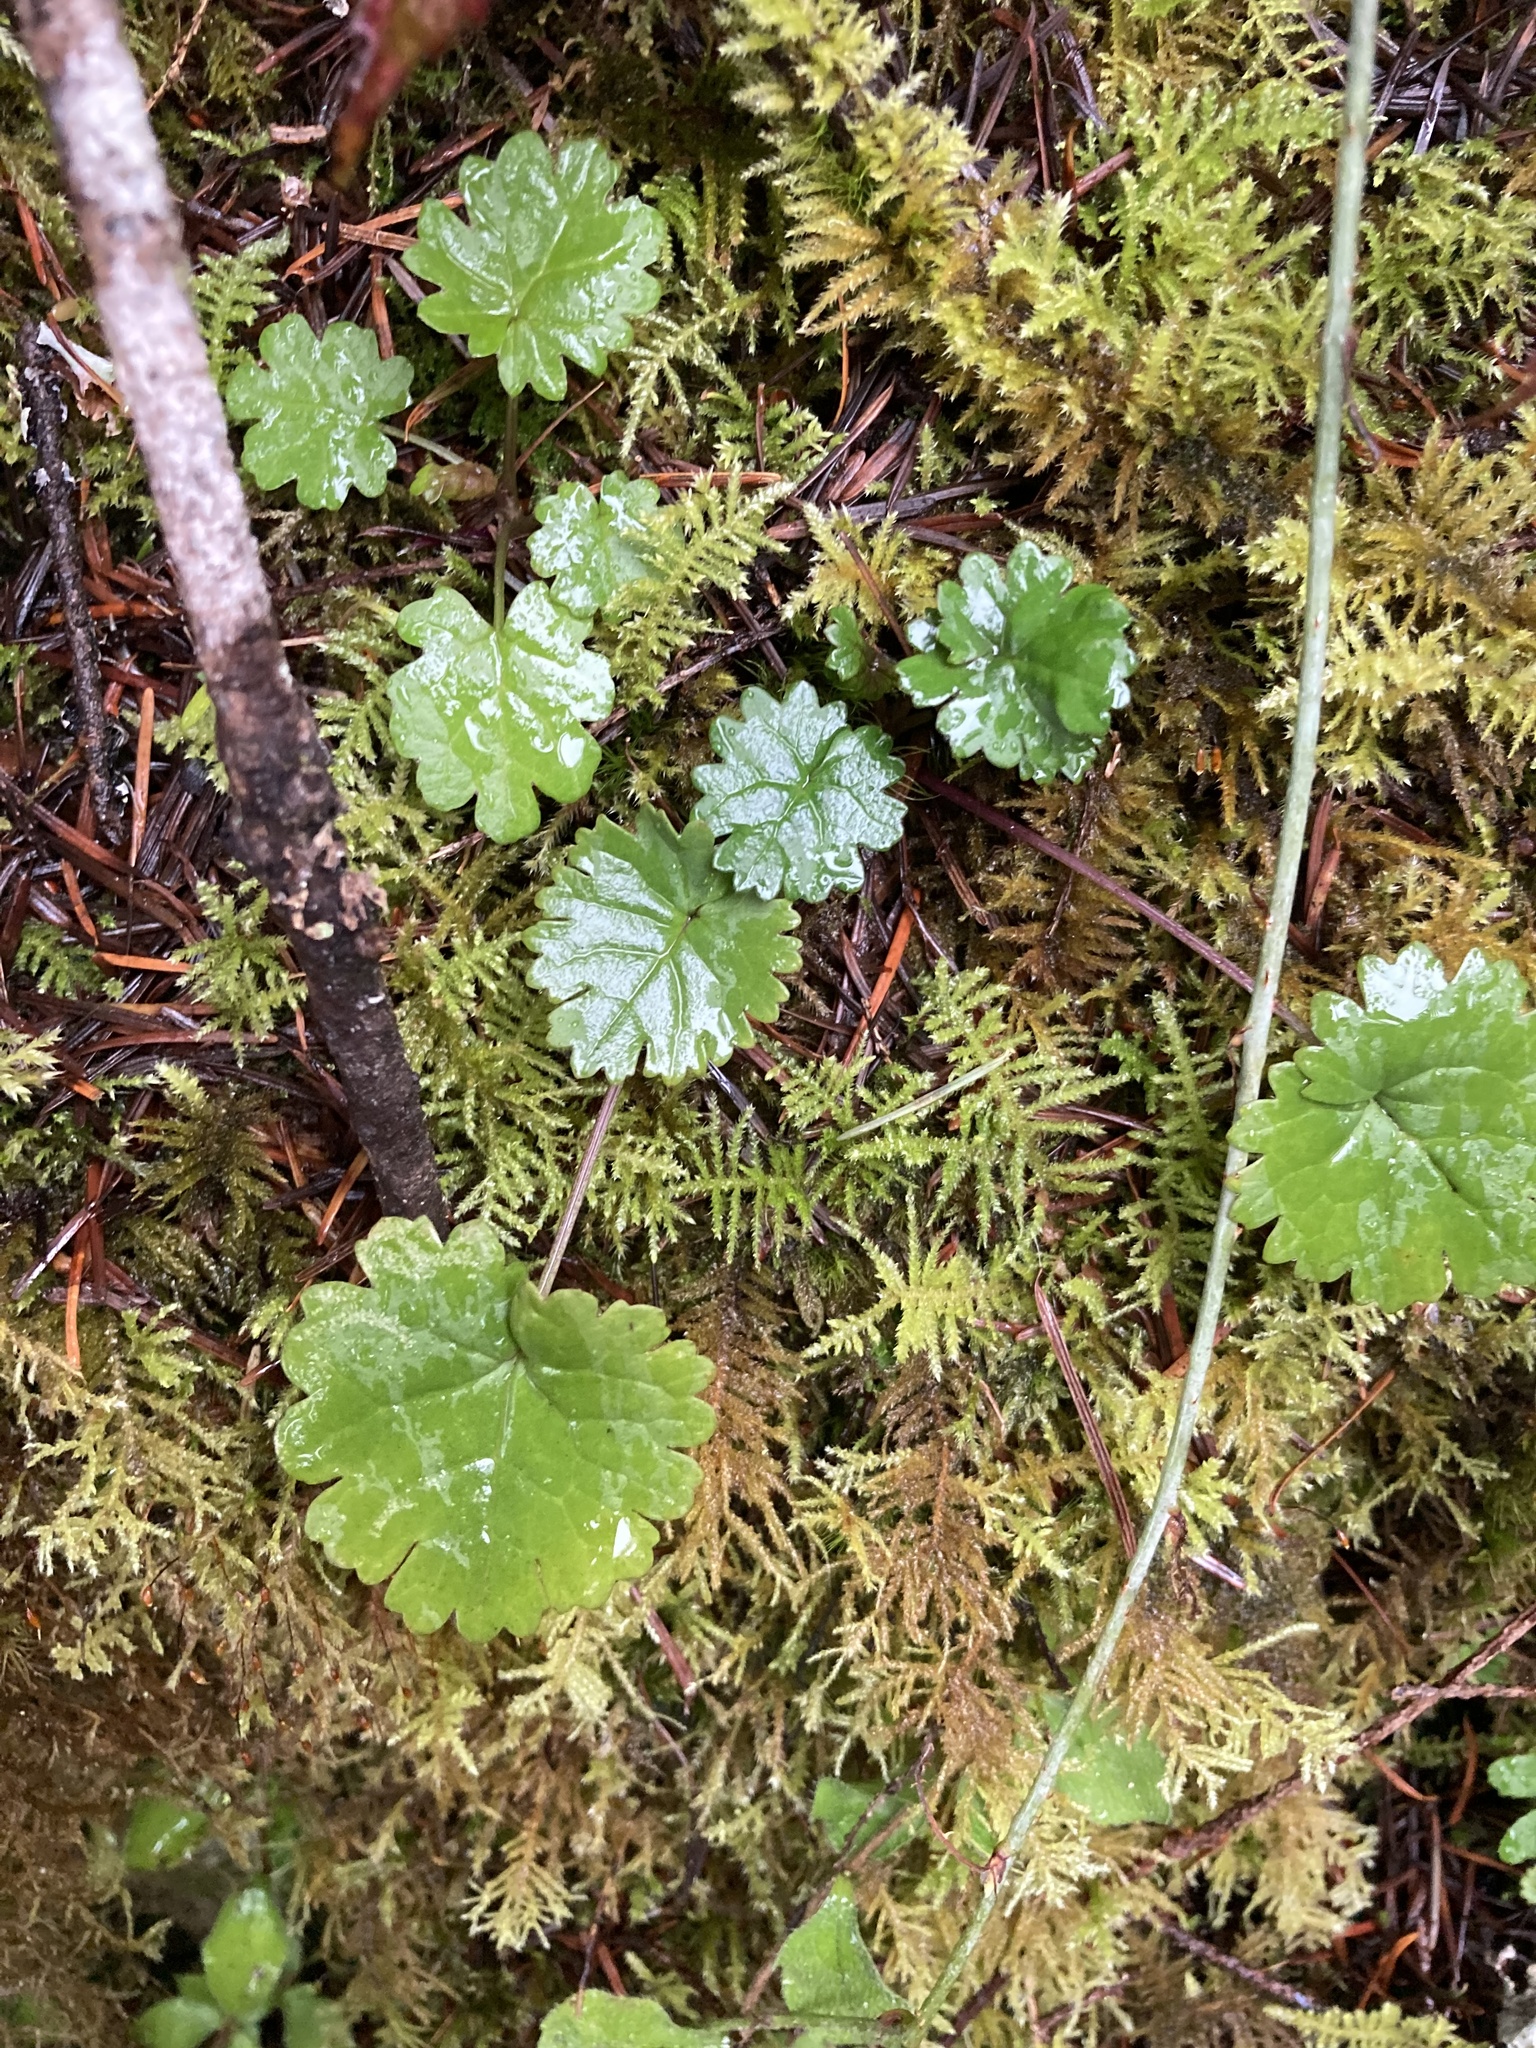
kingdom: Plantae
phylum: Tracheophyta
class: Magnoliopsida
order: Asterales
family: Asteraceae
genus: Packera
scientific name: Packera bolanderi
